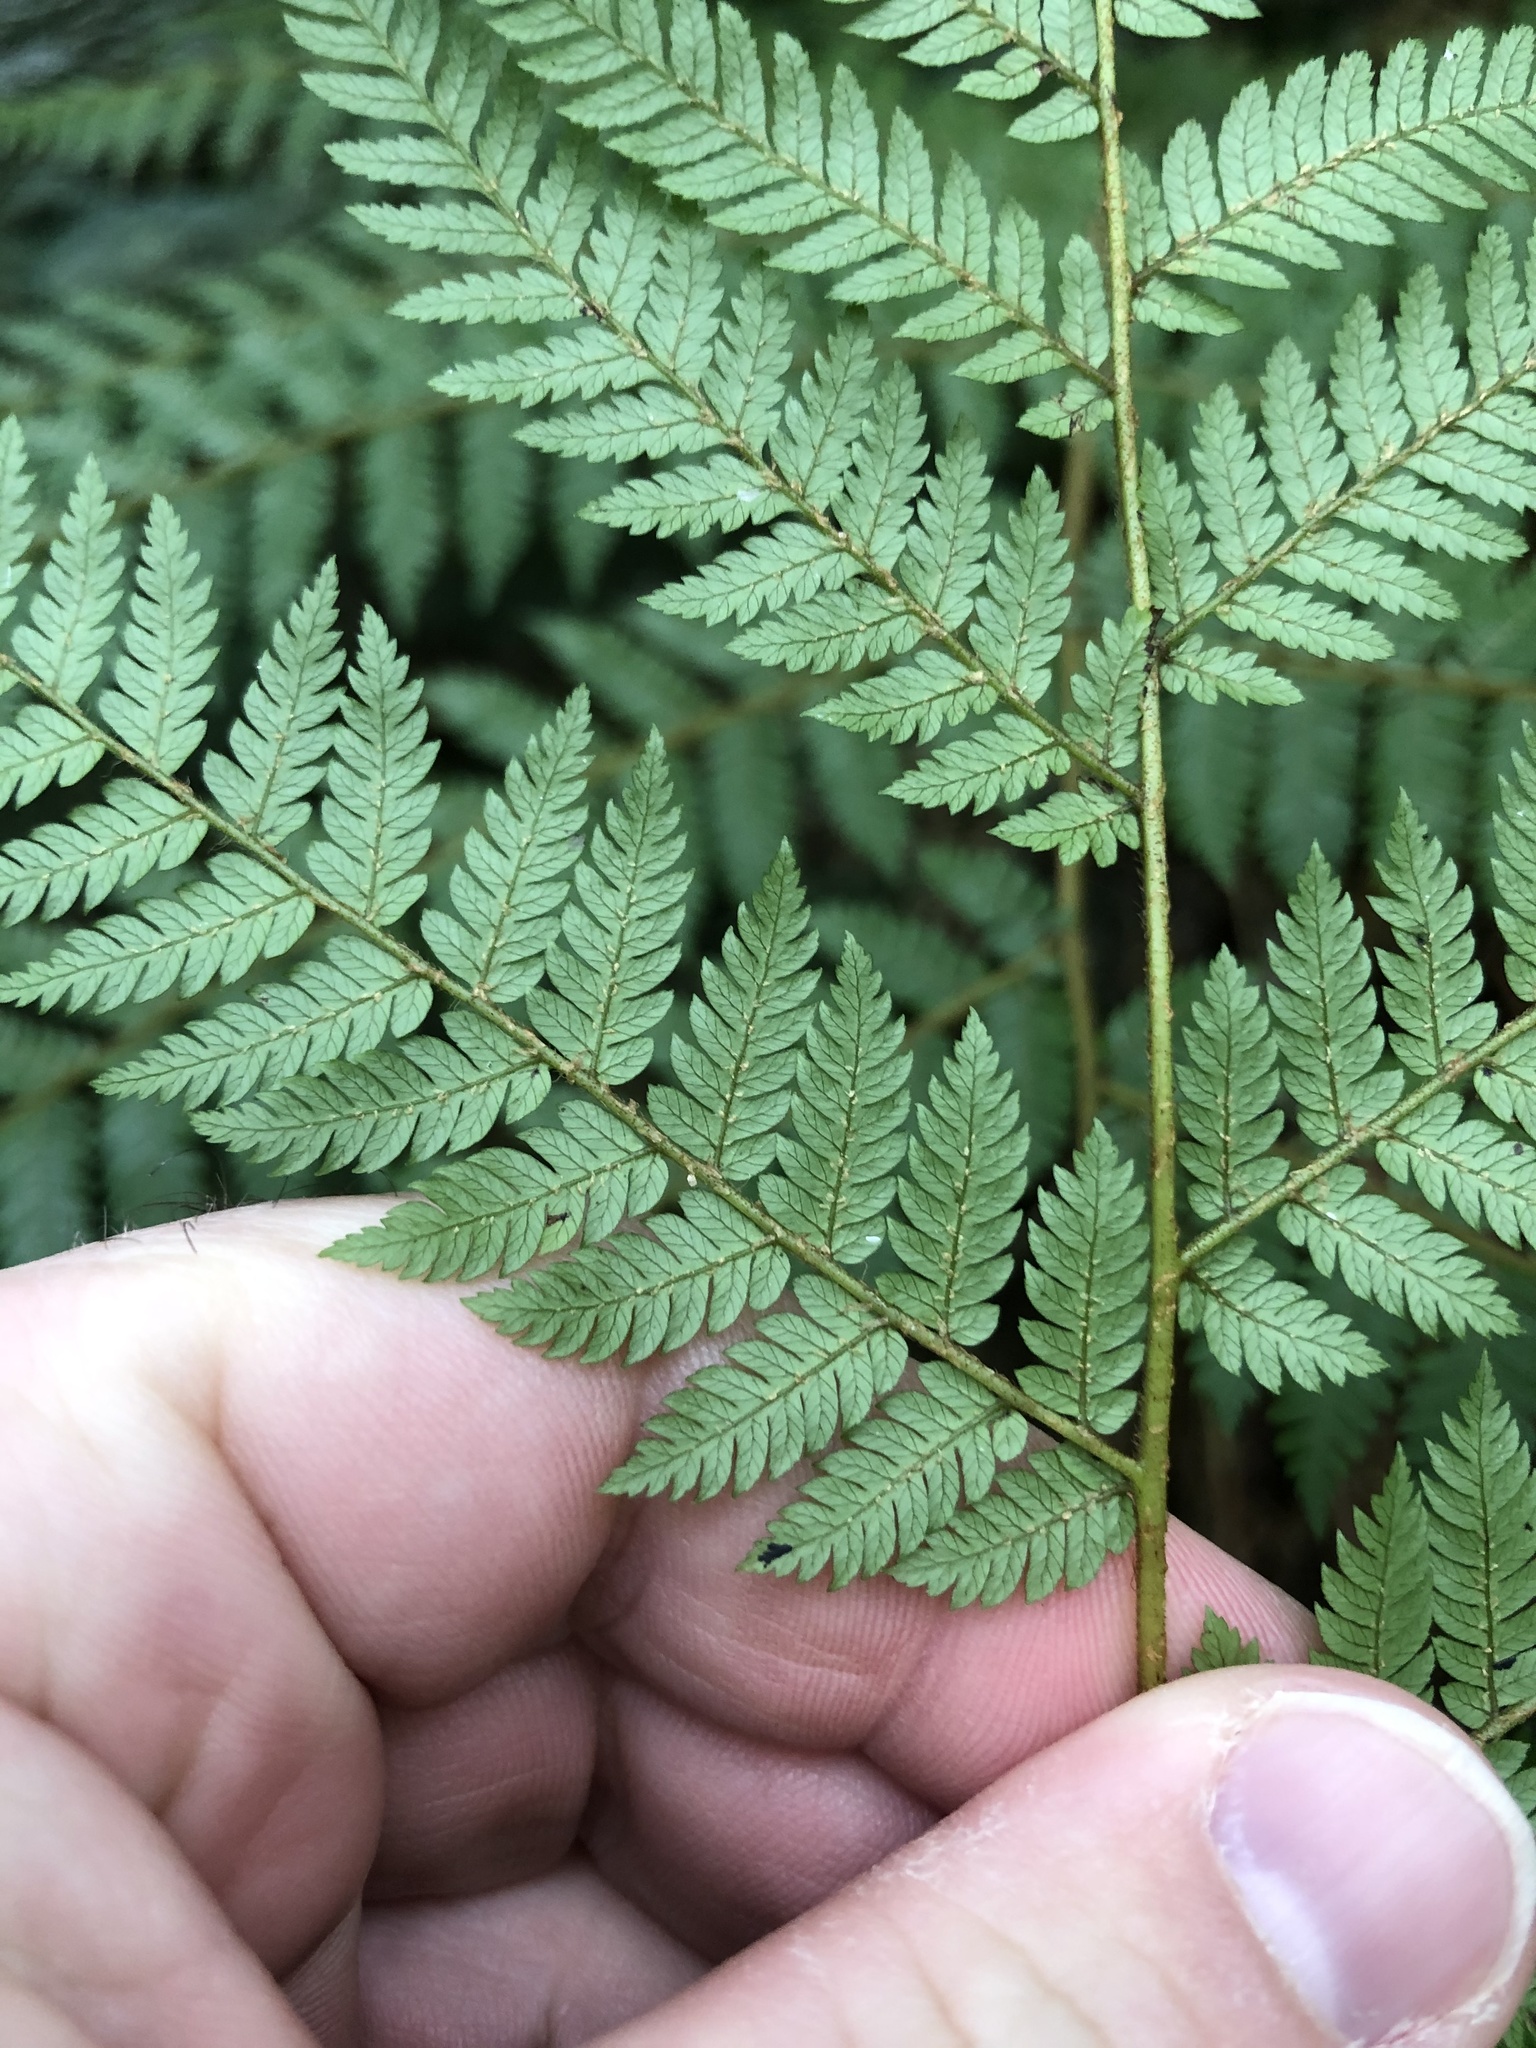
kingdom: Plantae
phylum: Tracheophyta
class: Polypodiopsida
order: Cyatheales
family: Cyatheaceae
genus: Alsophila
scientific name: Alsophila smithii
